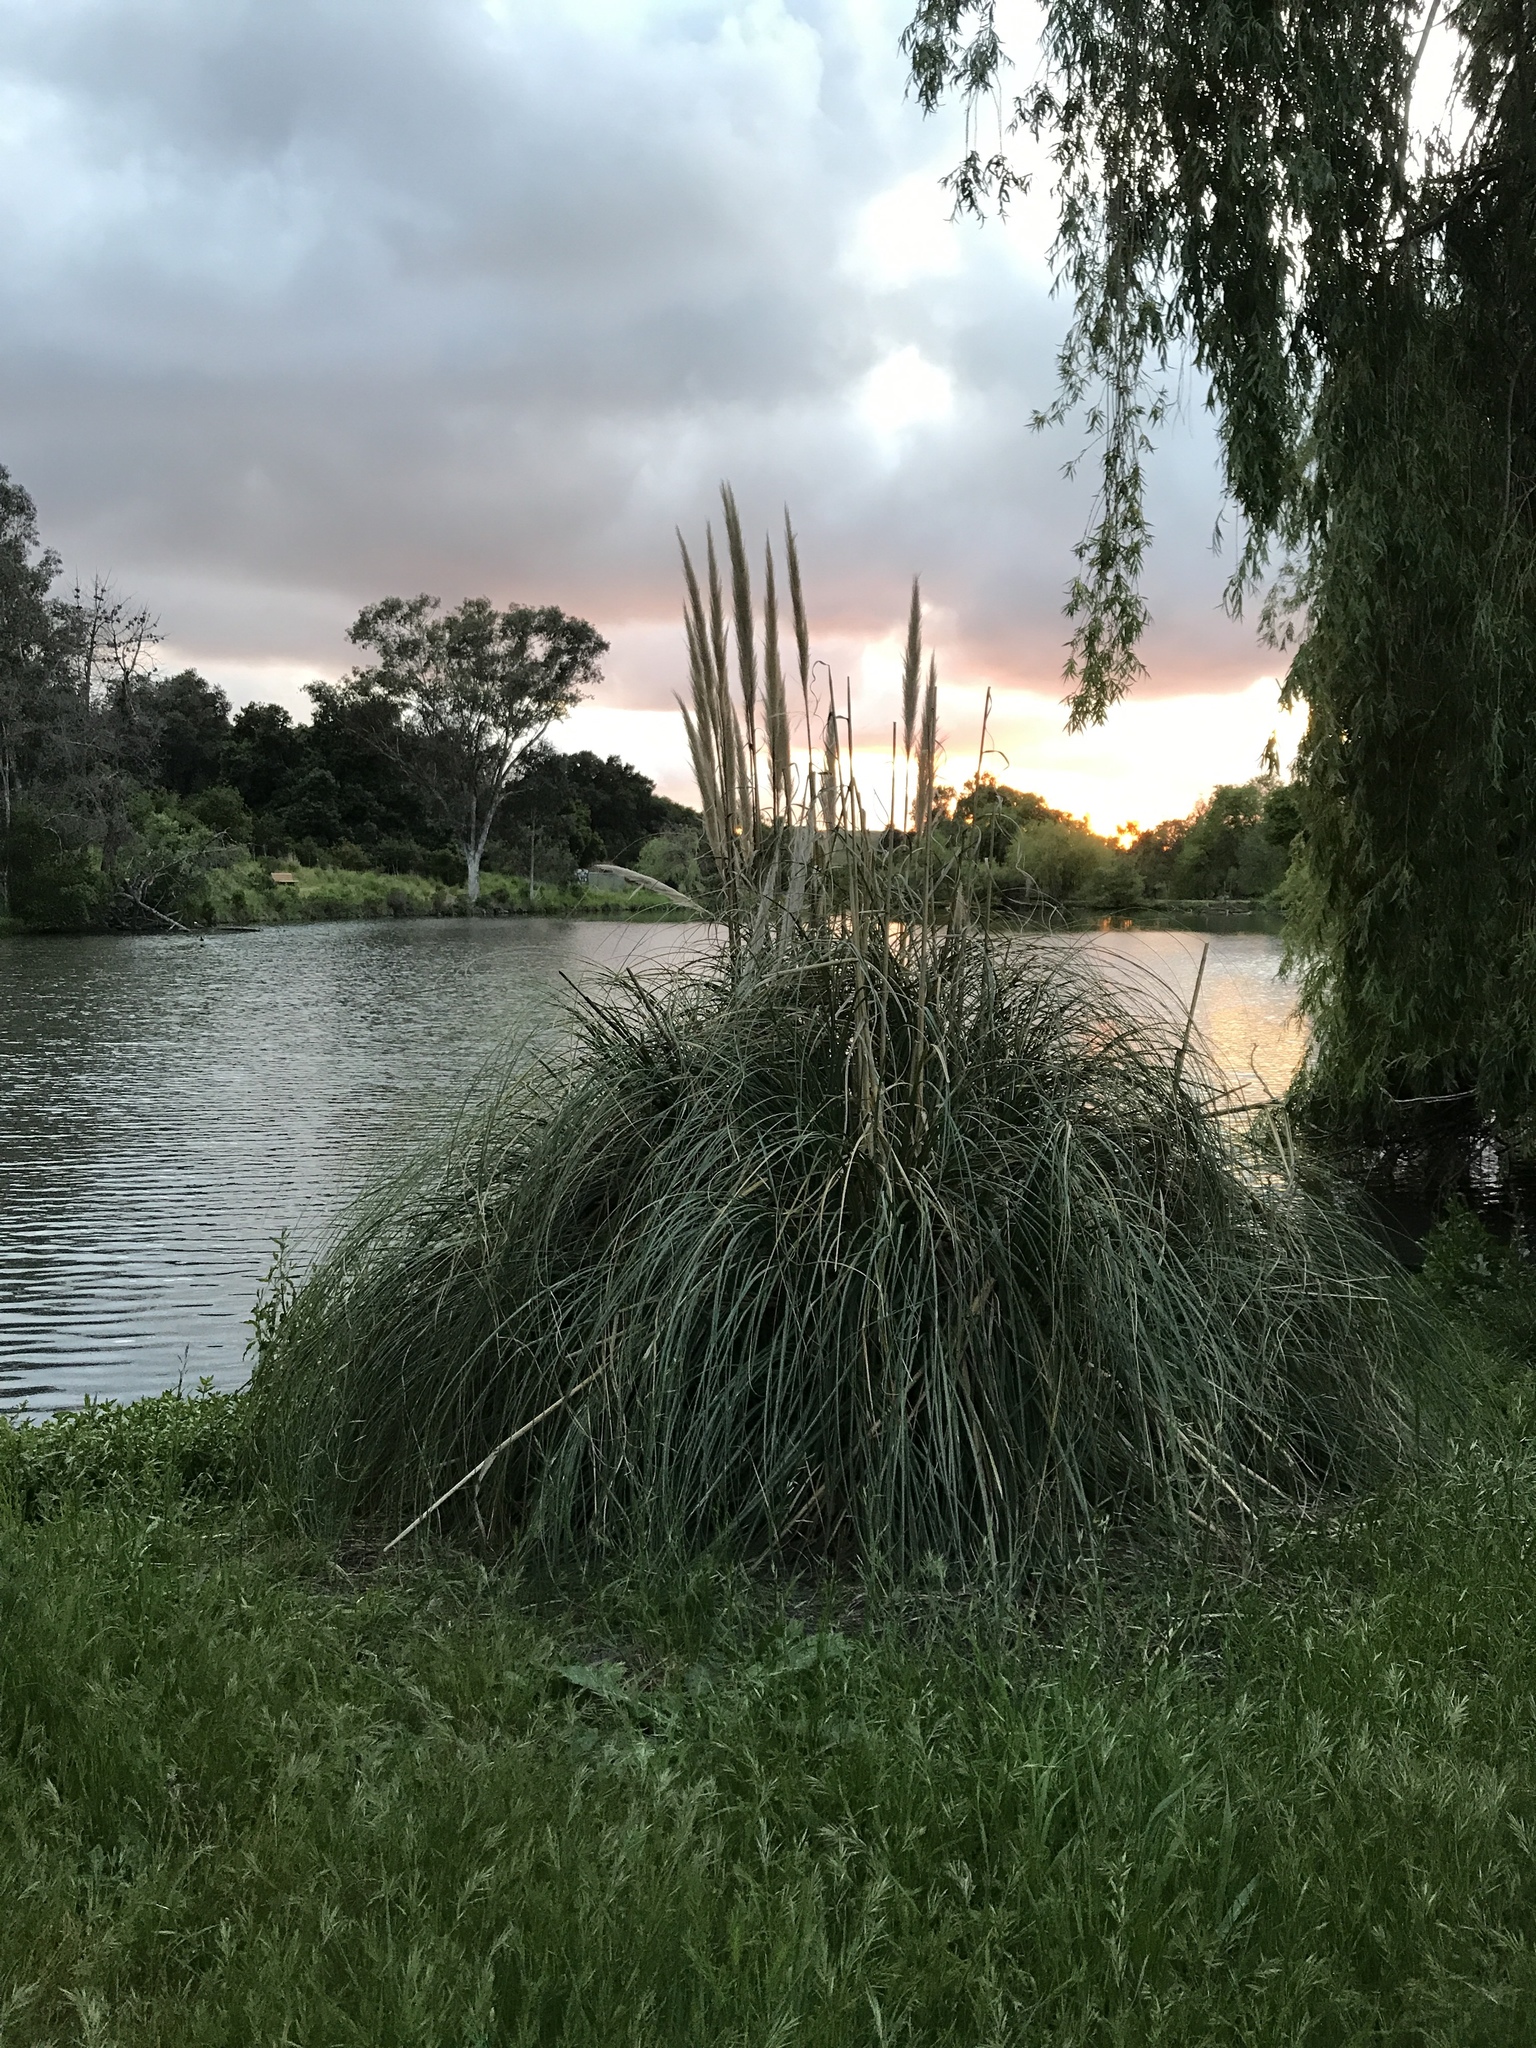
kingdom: Plantae
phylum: Tracheophyta
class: Liliopsida
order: Poales
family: Poaceae
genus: Cortaderia
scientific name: Cortaderia selloana
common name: Uruguayan pampas grass
